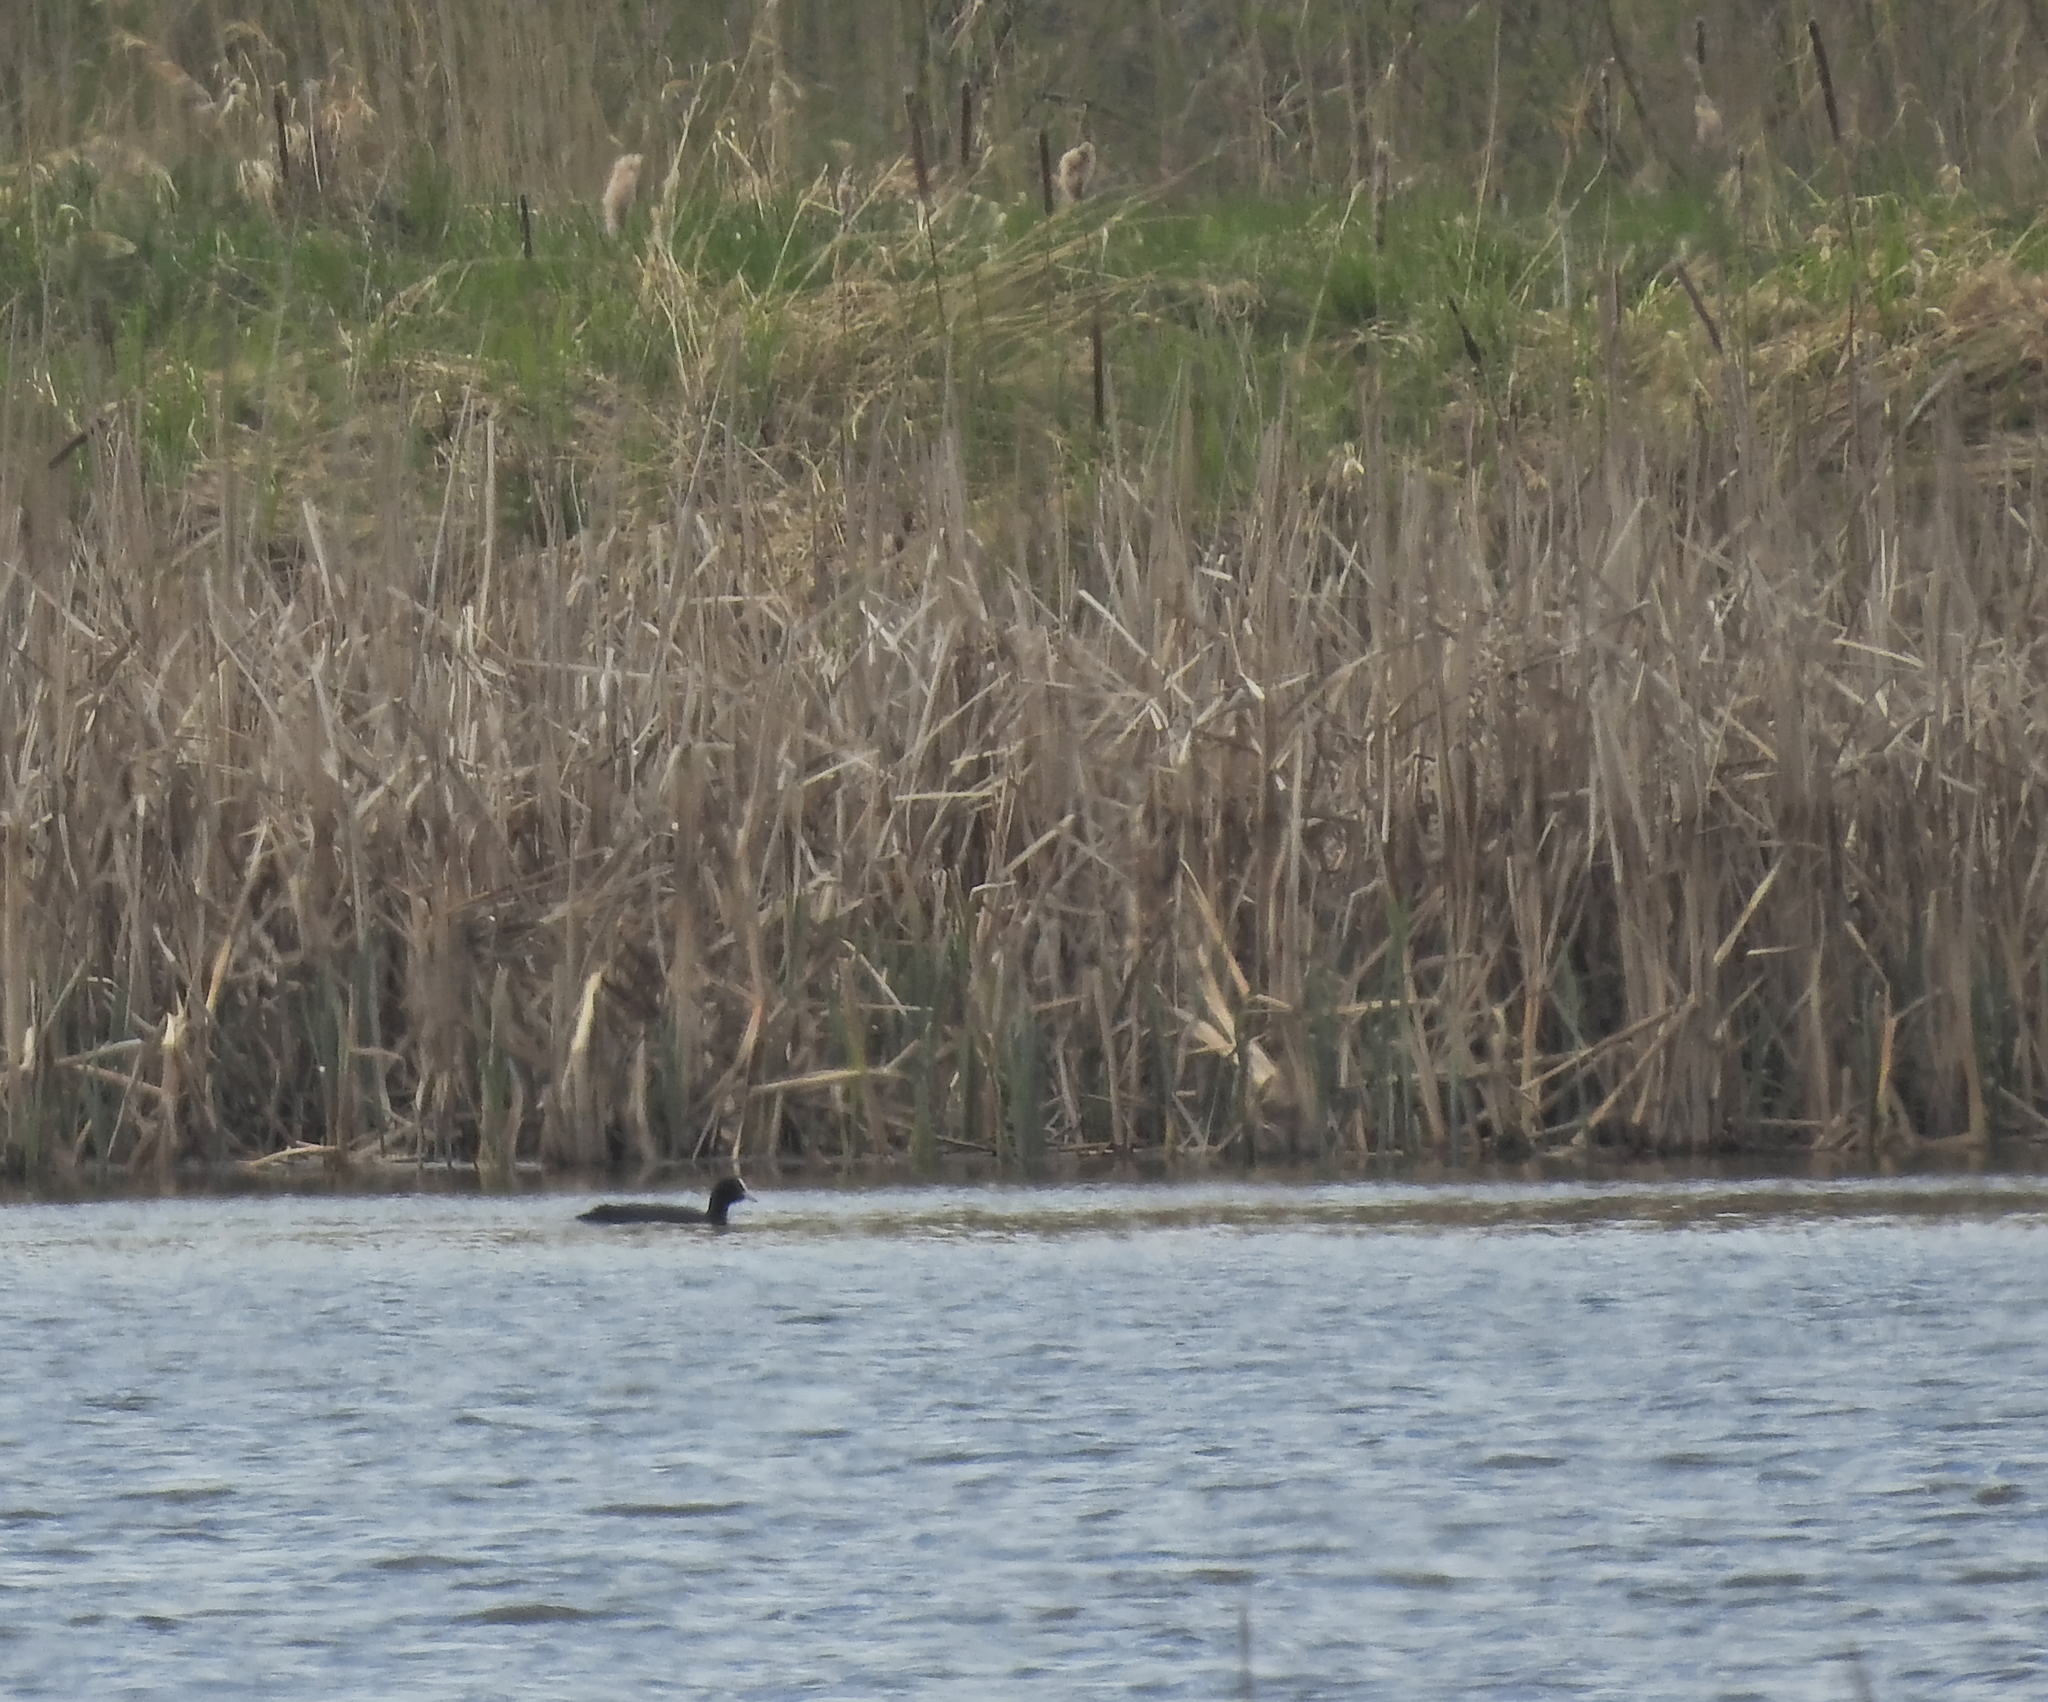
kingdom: Animalia
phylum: Chordata
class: Aves
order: Gruiformes
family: Rallidae
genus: Fulica
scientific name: Fulica atra
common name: Eurasian coot
